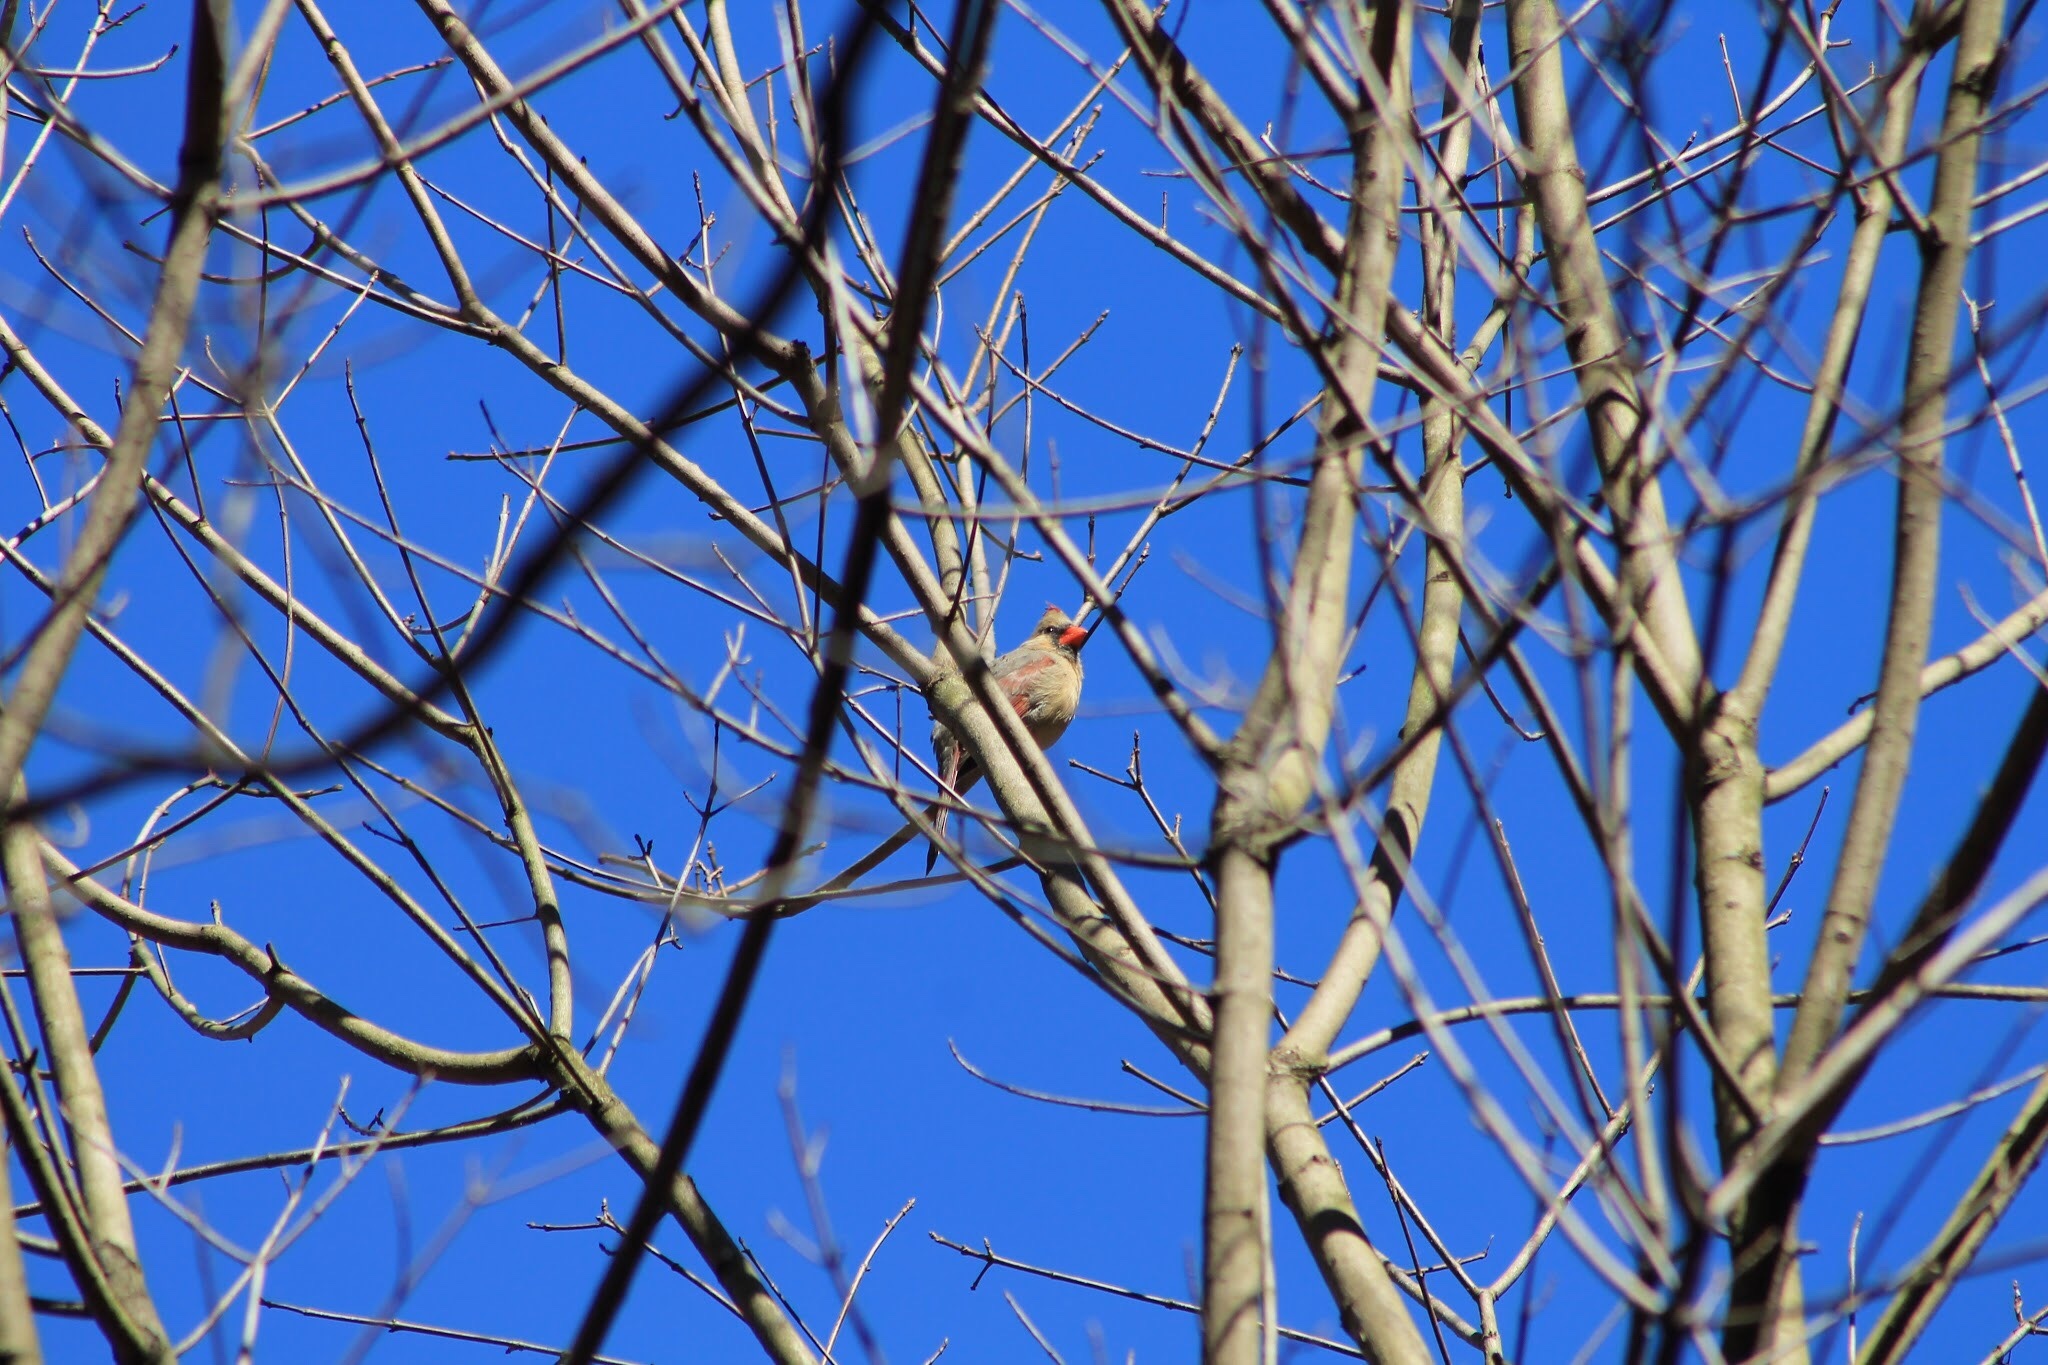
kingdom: Animalia
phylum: Chordata
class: Aves
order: Passeriformes
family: Cardinalidae
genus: Cardinalis
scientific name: Cardinalis cardinalis
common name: Northern cardinal
